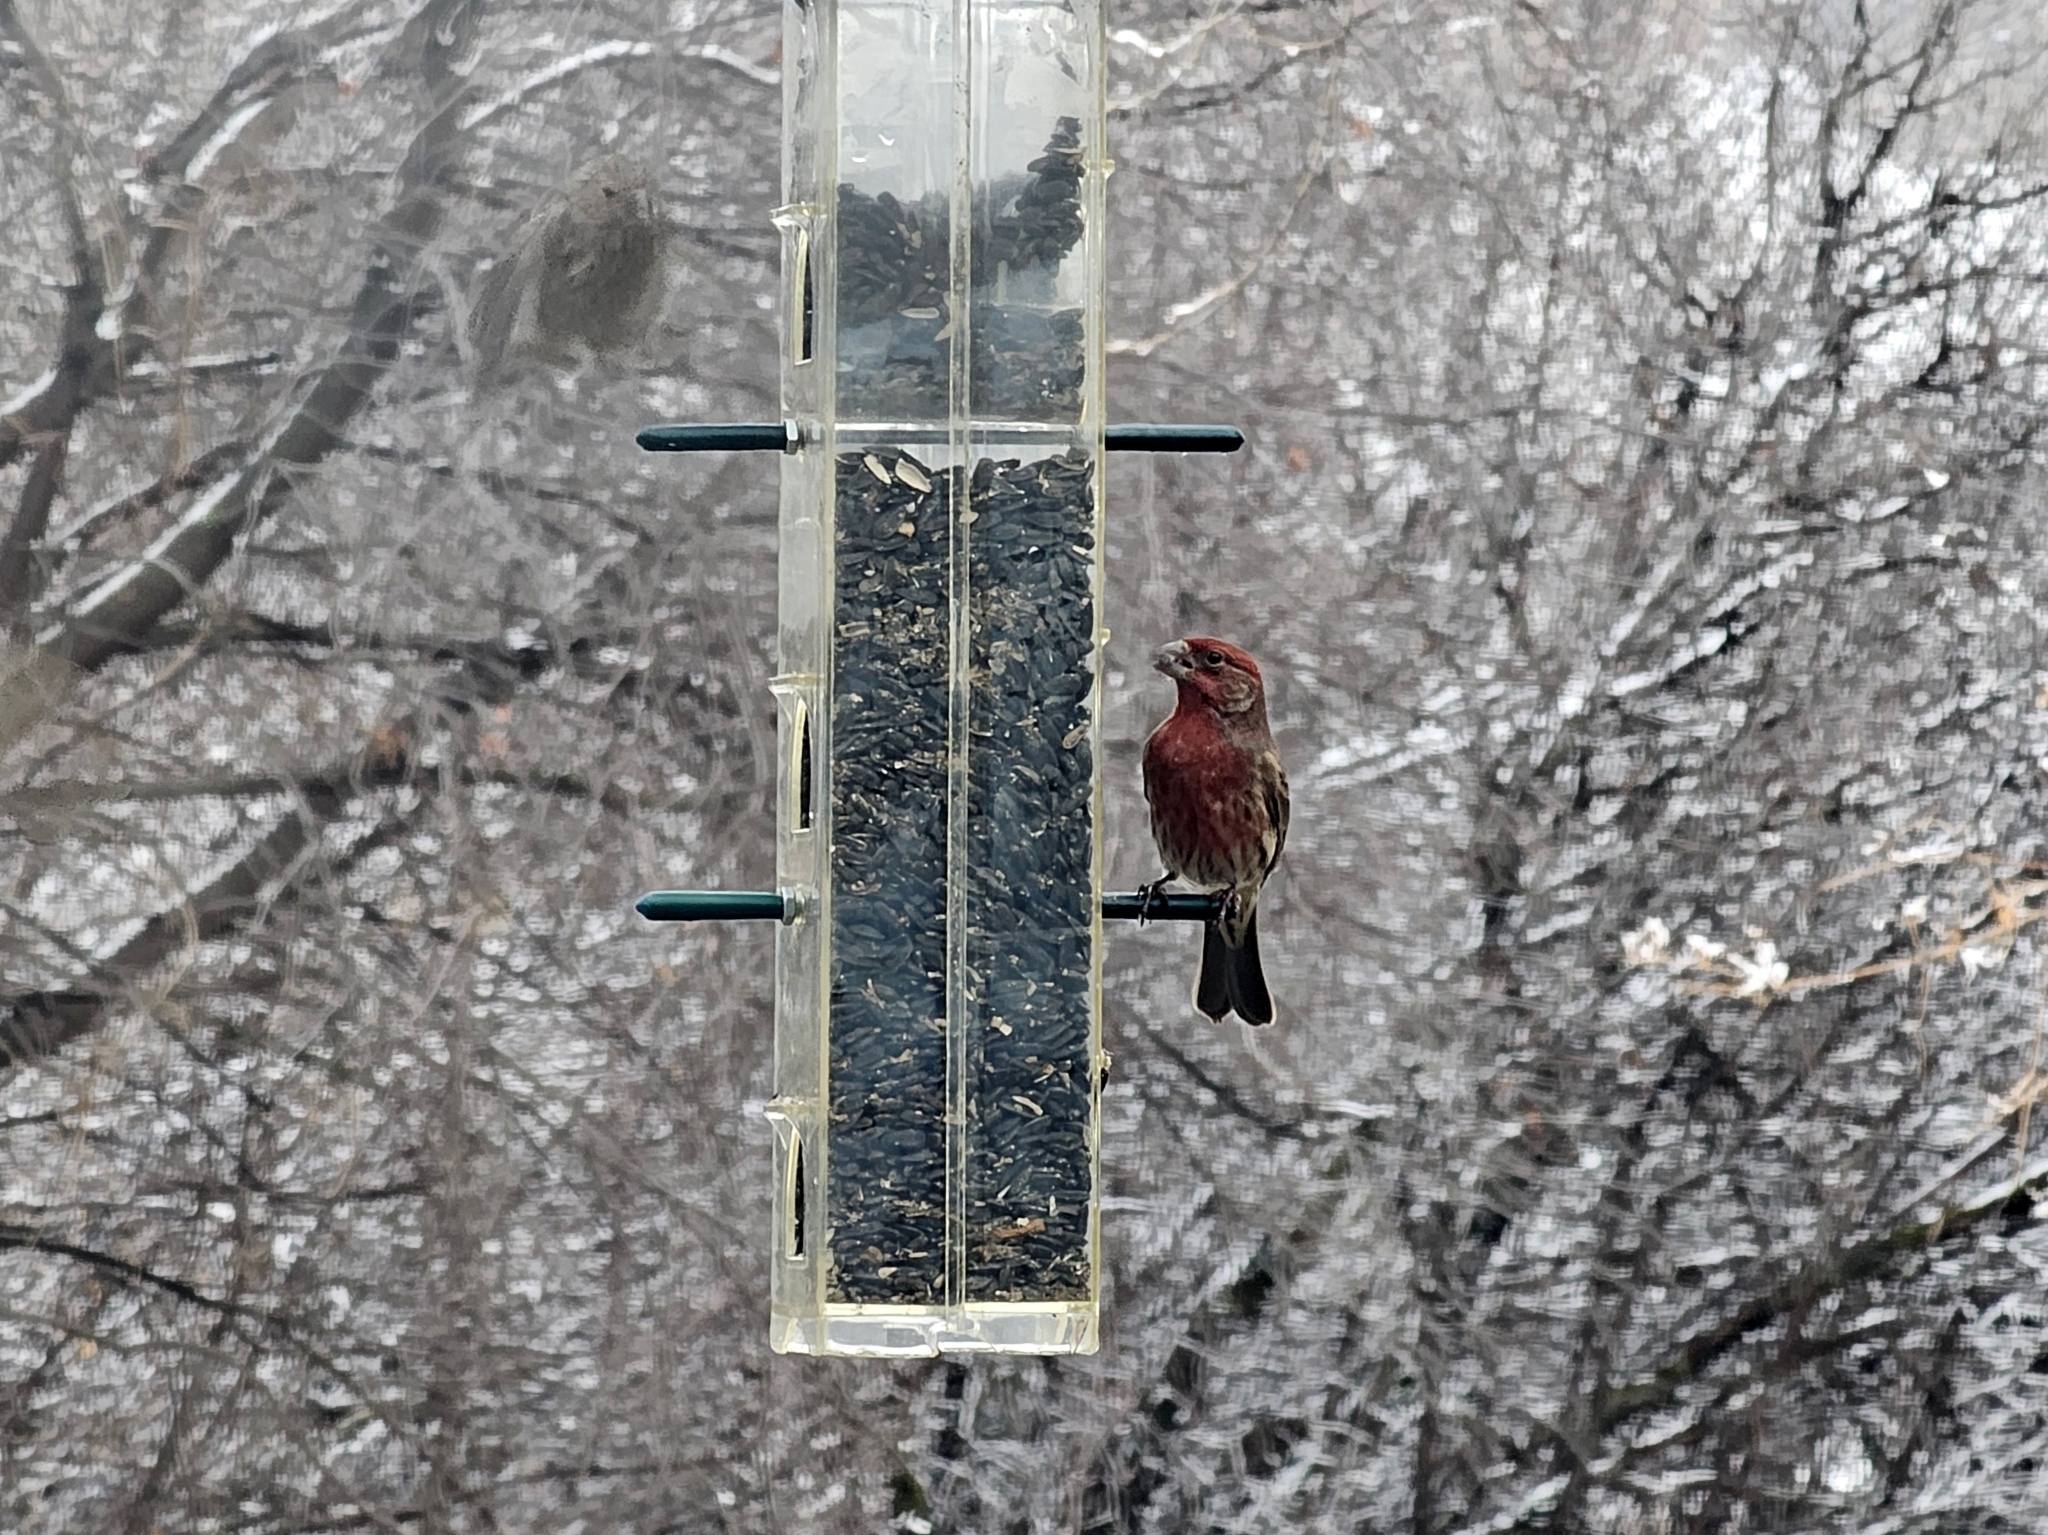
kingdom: Animalia
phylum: Chordata
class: Aves
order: Passeriformes
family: Fringillidae
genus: Haemorhous
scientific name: Haemorhous mexicanus
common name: House finch
